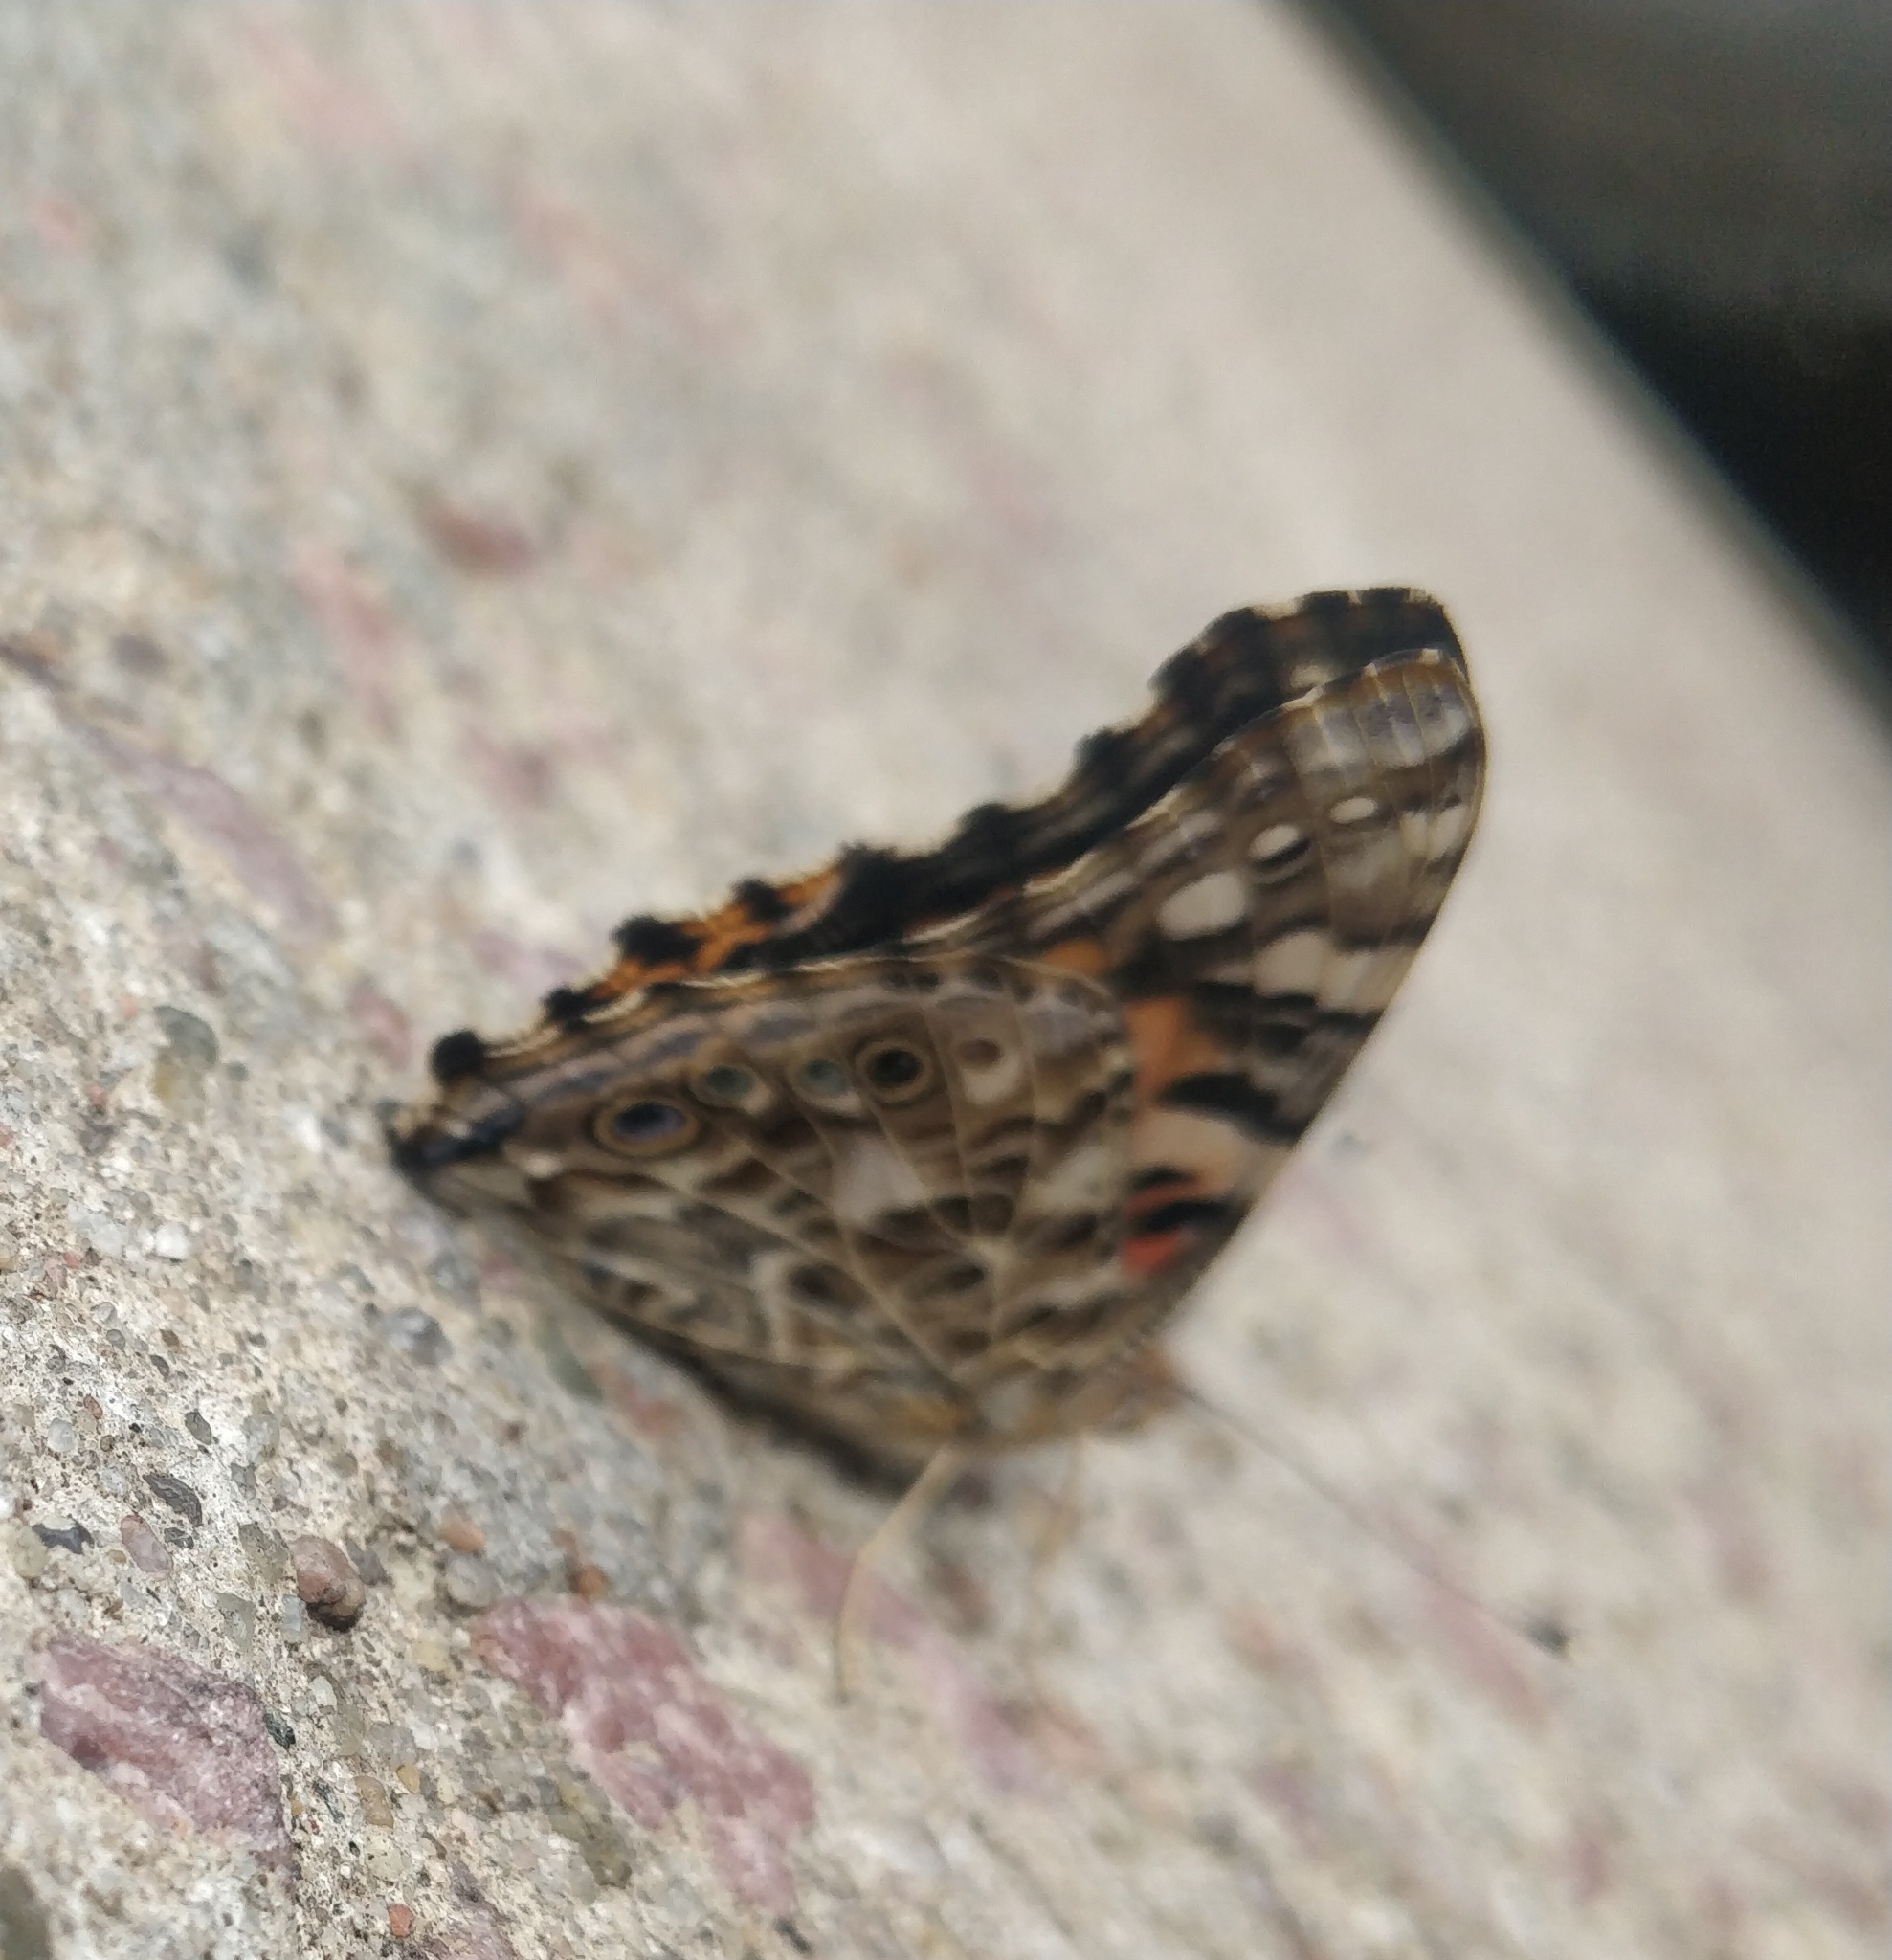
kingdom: Animalia
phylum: Arthropoda
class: Insecta
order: Lepidoptera
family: Nymphalidae
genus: Vanessa
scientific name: Vanessa cardui
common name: Painted lady
